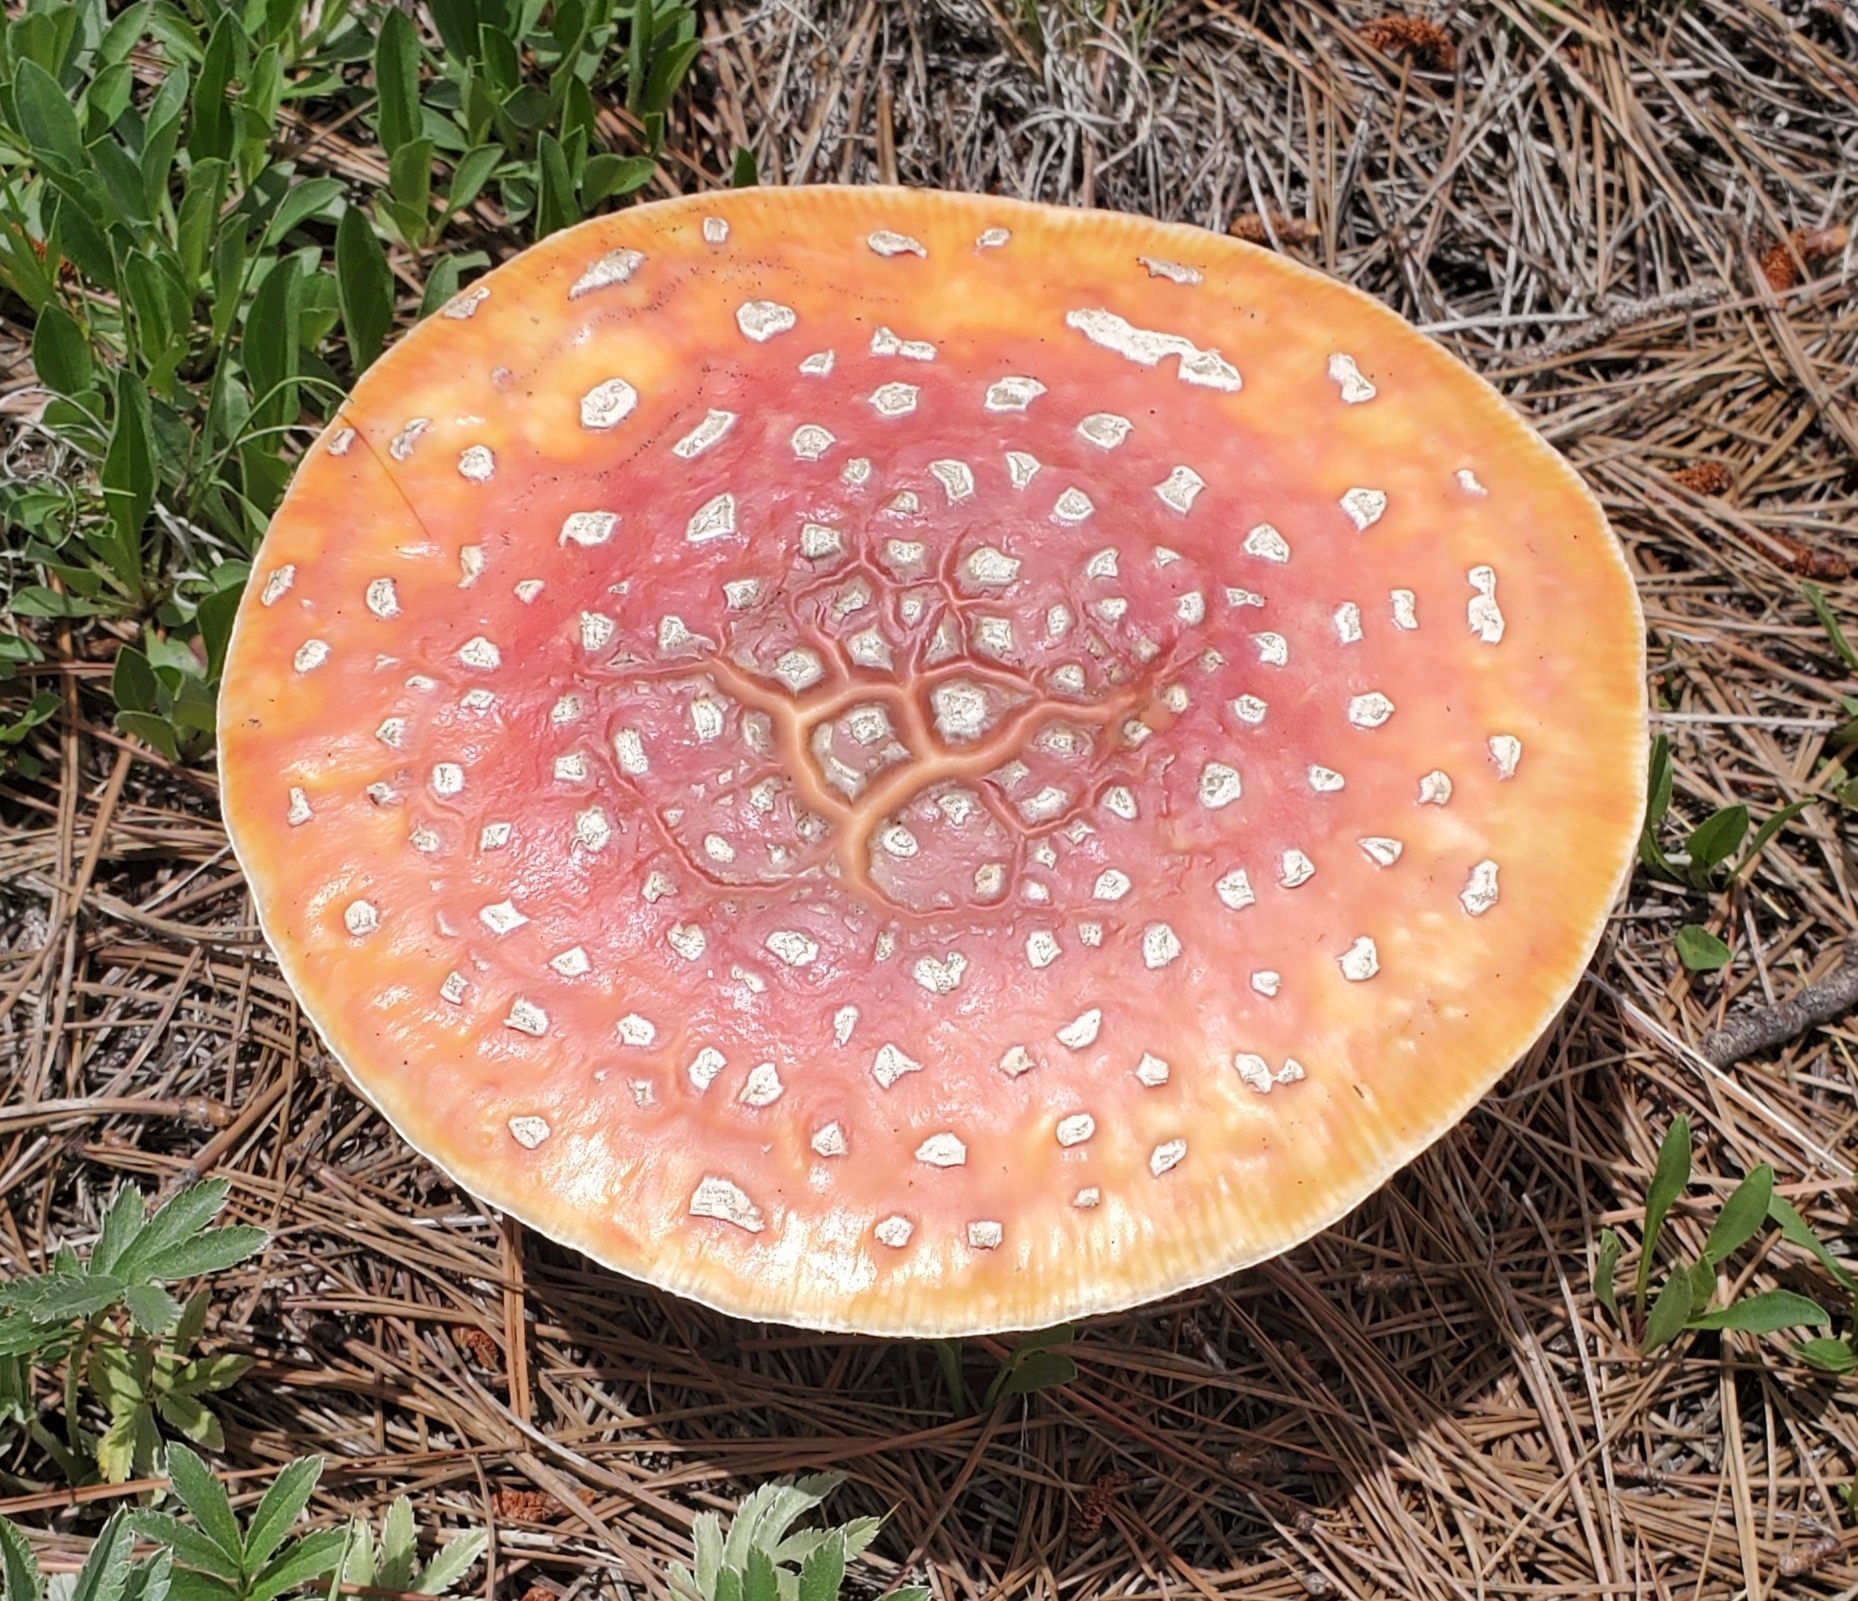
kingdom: Fungi
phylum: Basidiomycota
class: Agaricomycetes
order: Agaricales
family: Amanitaceae
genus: Amanita
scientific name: Amanita muscaria
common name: Fly agaric
